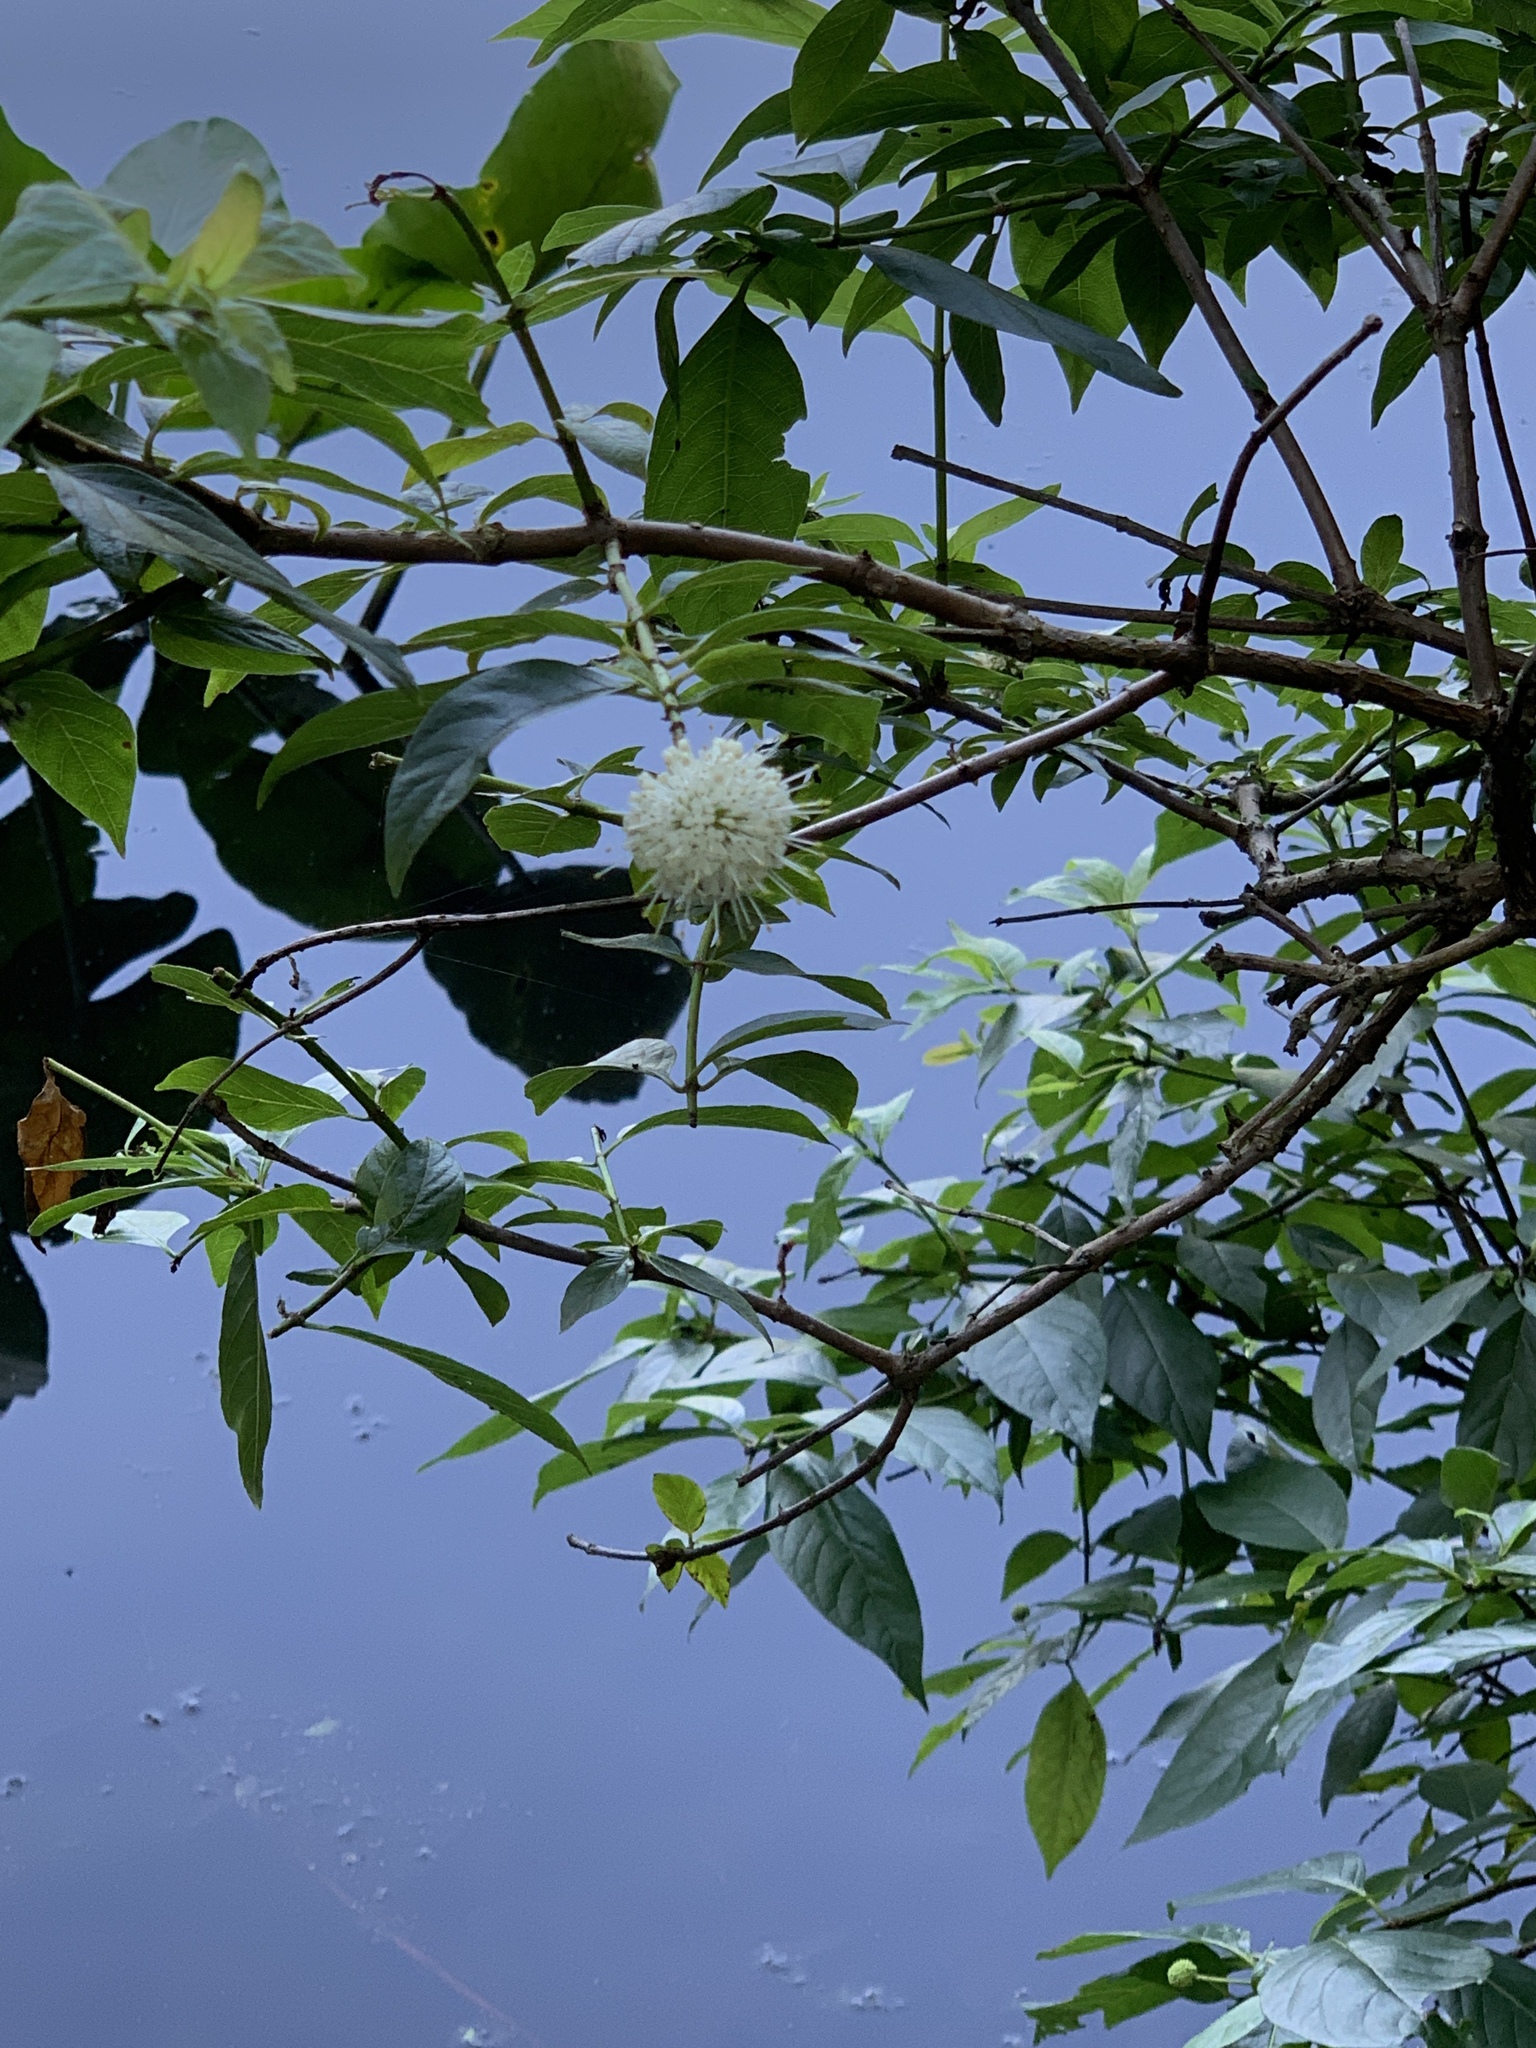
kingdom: Plantae
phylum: Tracheophyta
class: Magnoliopsida
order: Gentianales
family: Rubiaceae
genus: Cephalanthus
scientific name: Cephalanthus occidentalis
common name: Button-willow
